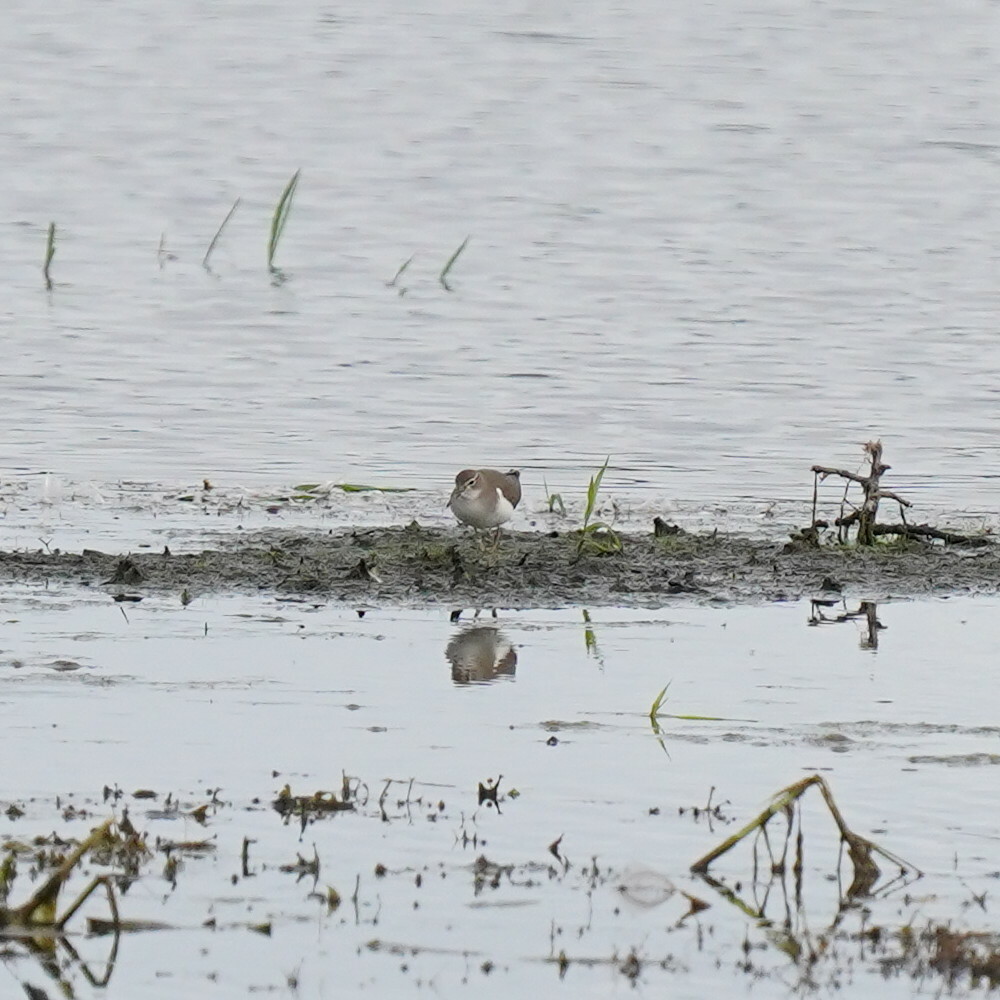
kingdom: Animalia
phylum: Chordata
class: Aves
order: Charadriiformes
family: Scolopacidae
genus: Actitis
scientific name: Actitis macularius
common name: Spotted sandpiper
